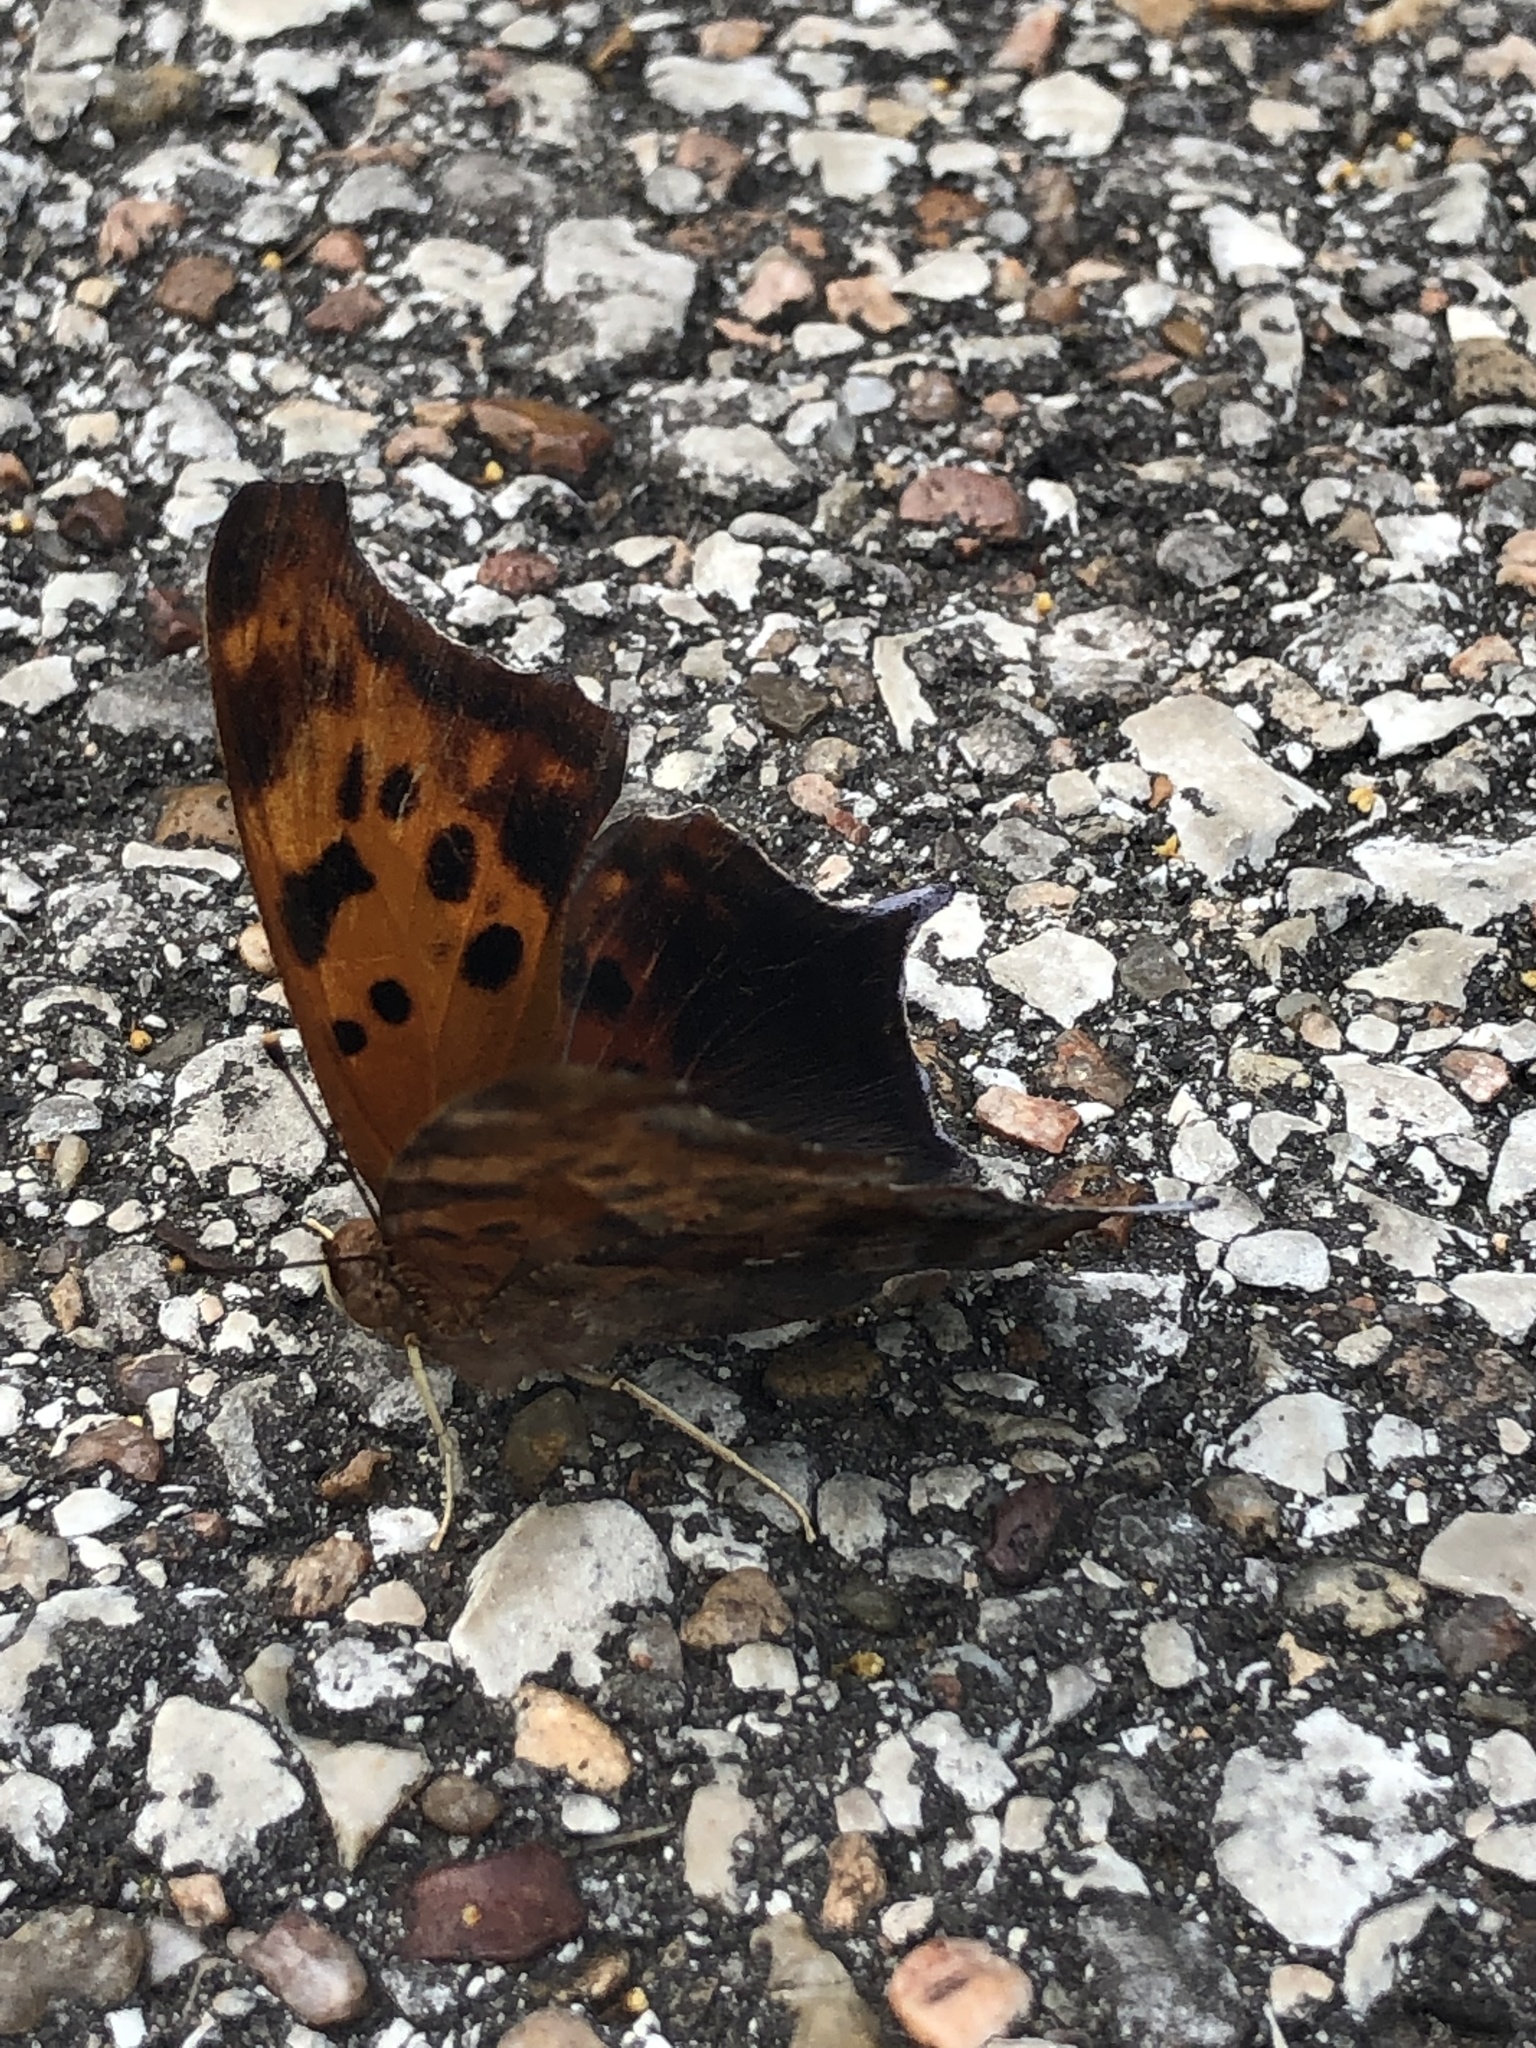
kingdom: Animalia
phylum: Arthropoda
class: Insecta
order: Lepidoptera
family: Nymphalidae
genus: Polygonia
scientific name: Polygonia interrogationis
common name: Question mark
